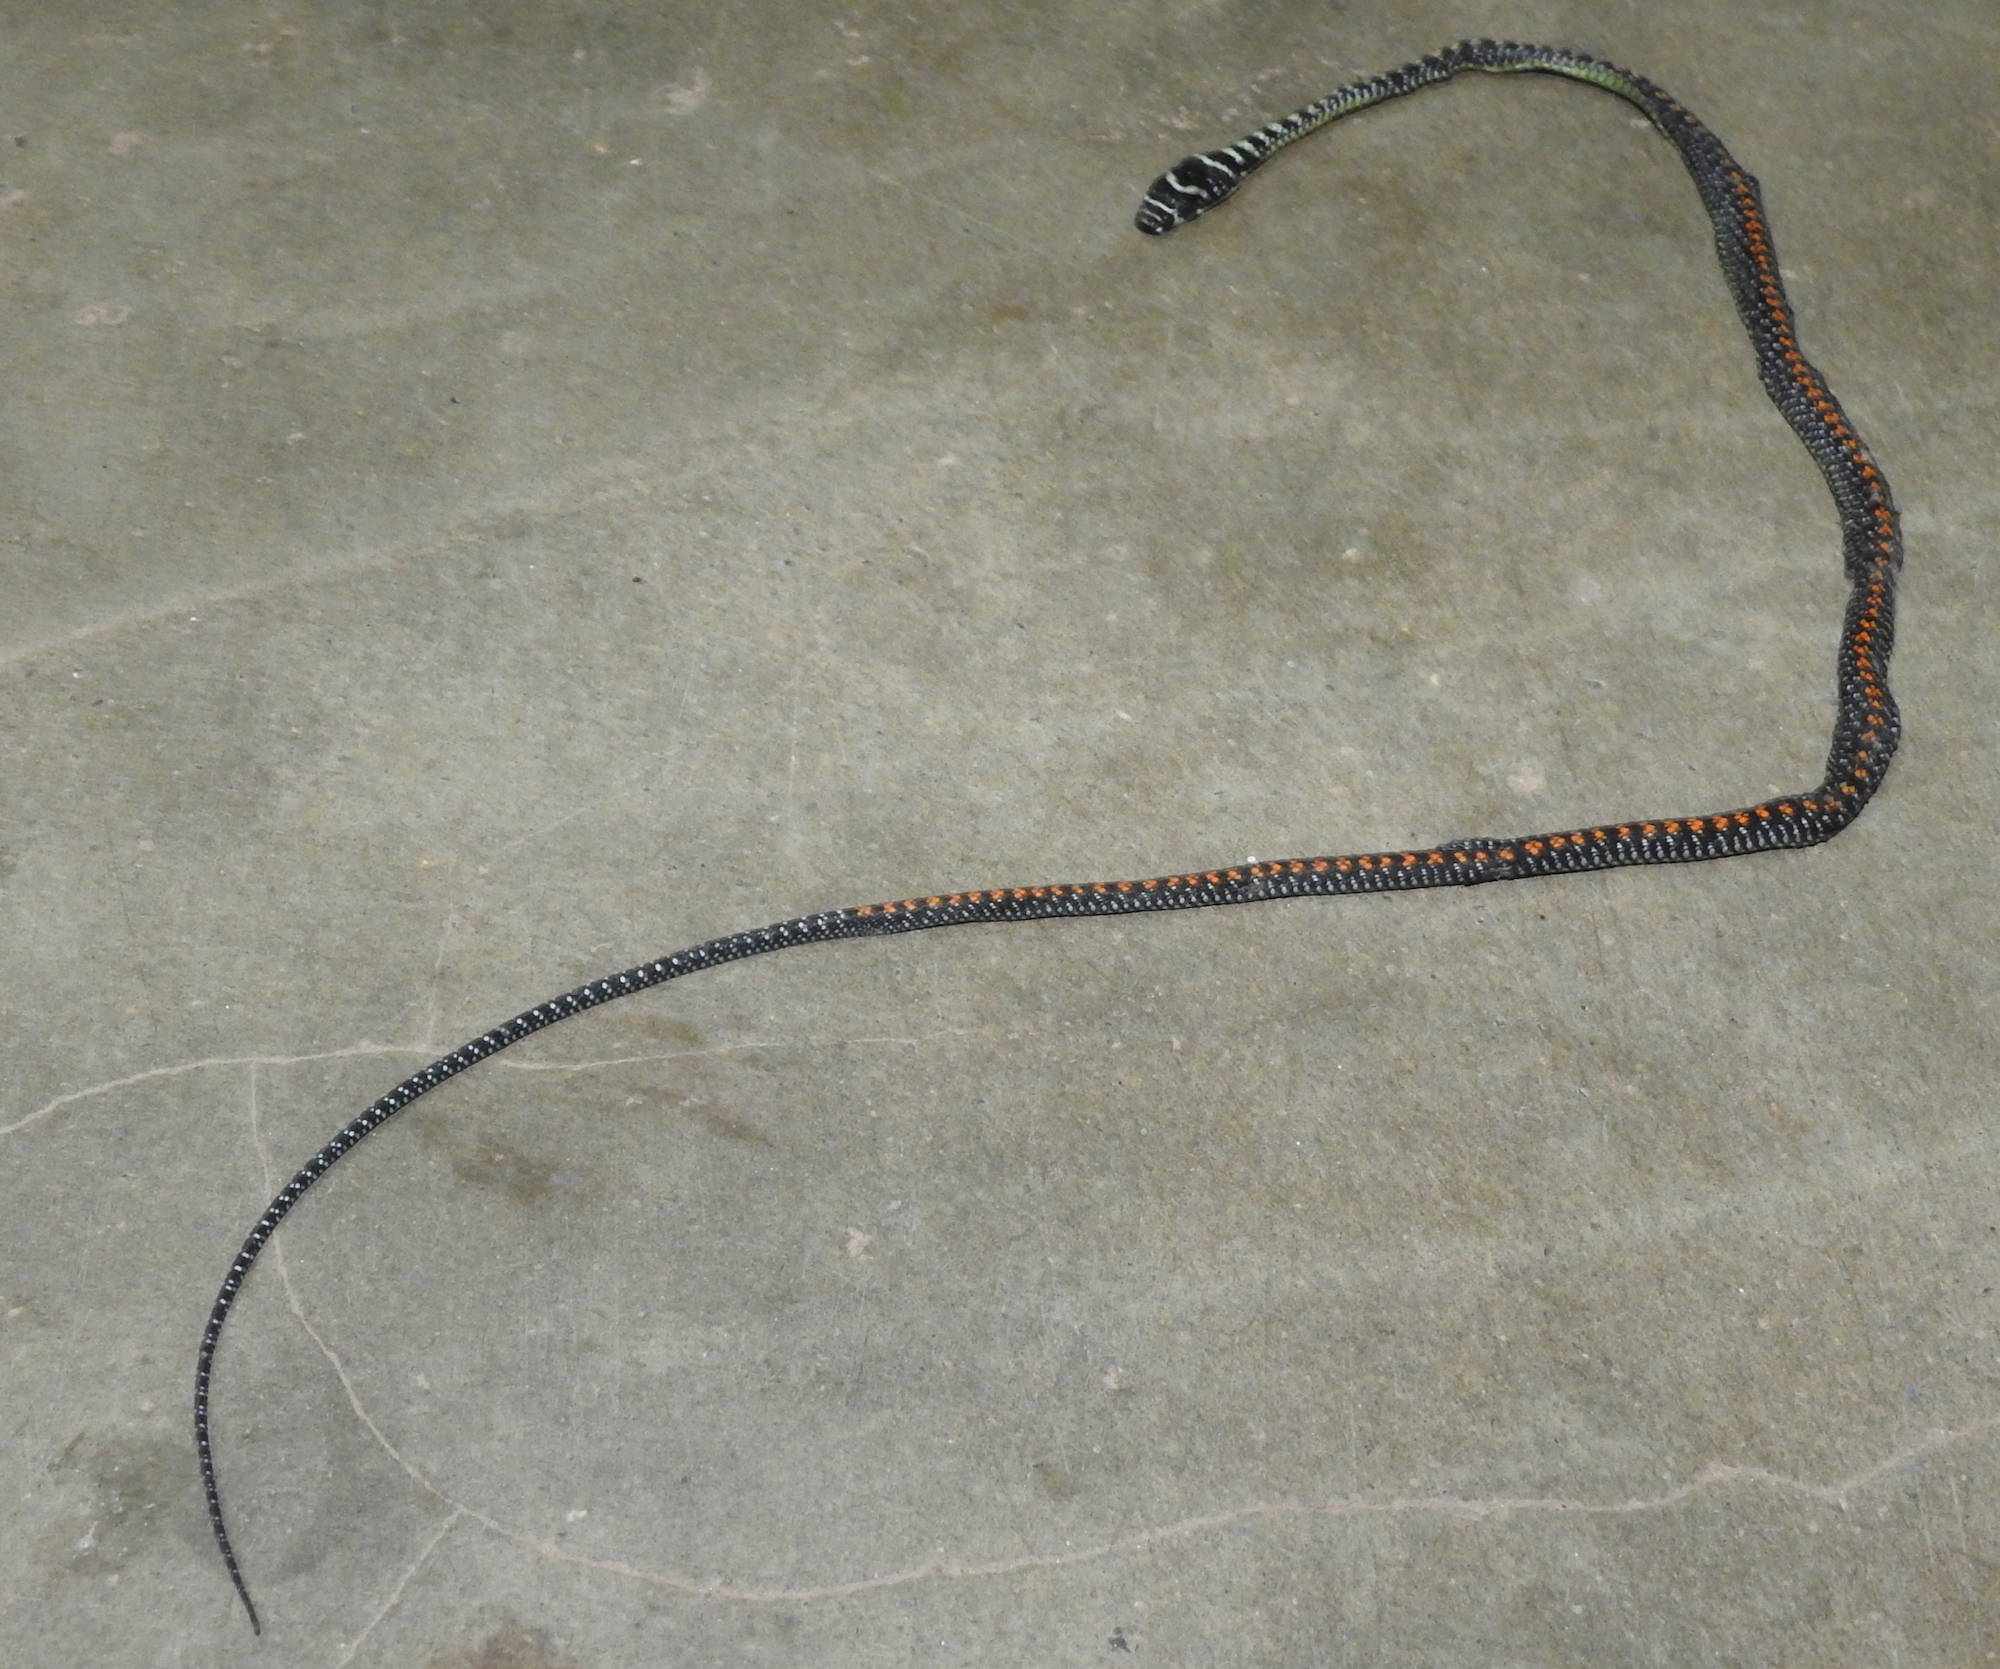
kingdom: Animalia
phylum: Chordata
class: Squamata
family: Colubridae
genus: Chrysopelea
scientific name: Chrysopelea paradisi
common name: Paradise tree snake
